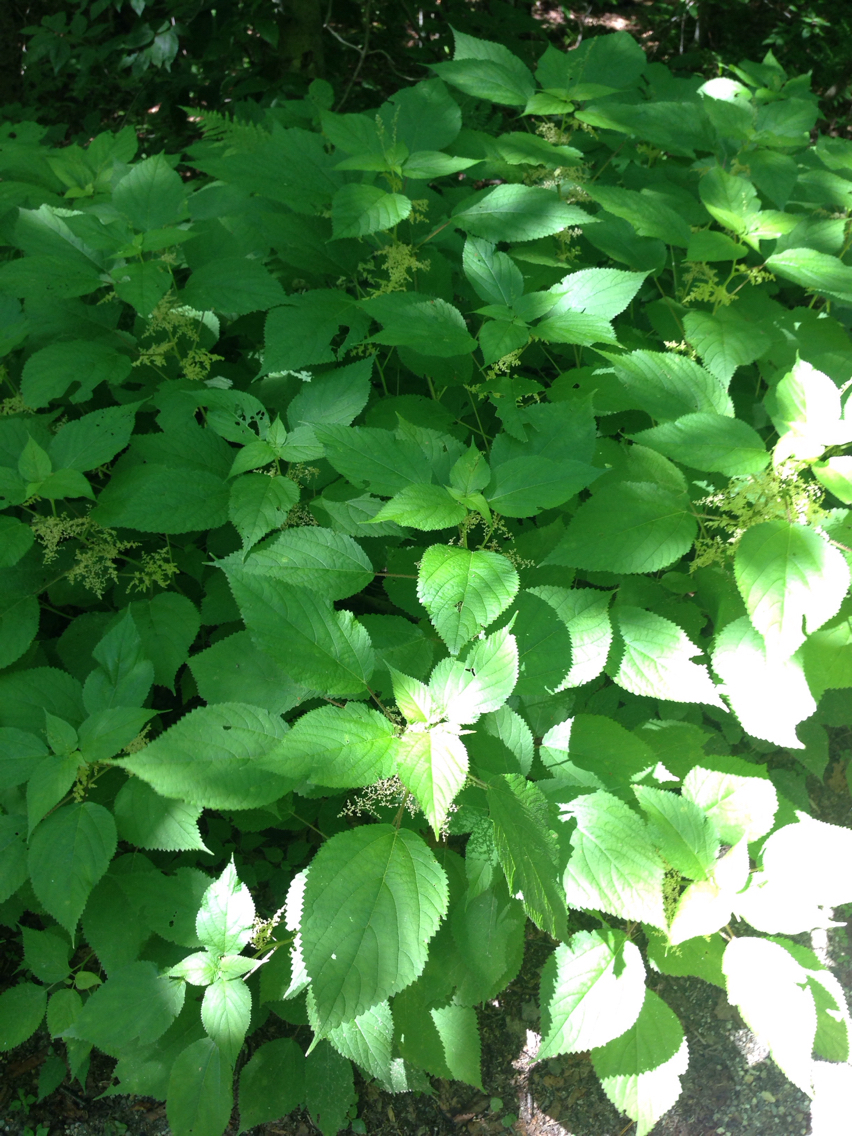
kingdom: Plantae
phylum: Tracheophyta
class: Magnoliopsida
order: Rosales
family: Urticaceae
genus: Laportea
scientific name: Laportea canadensis
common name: Canada nettle
